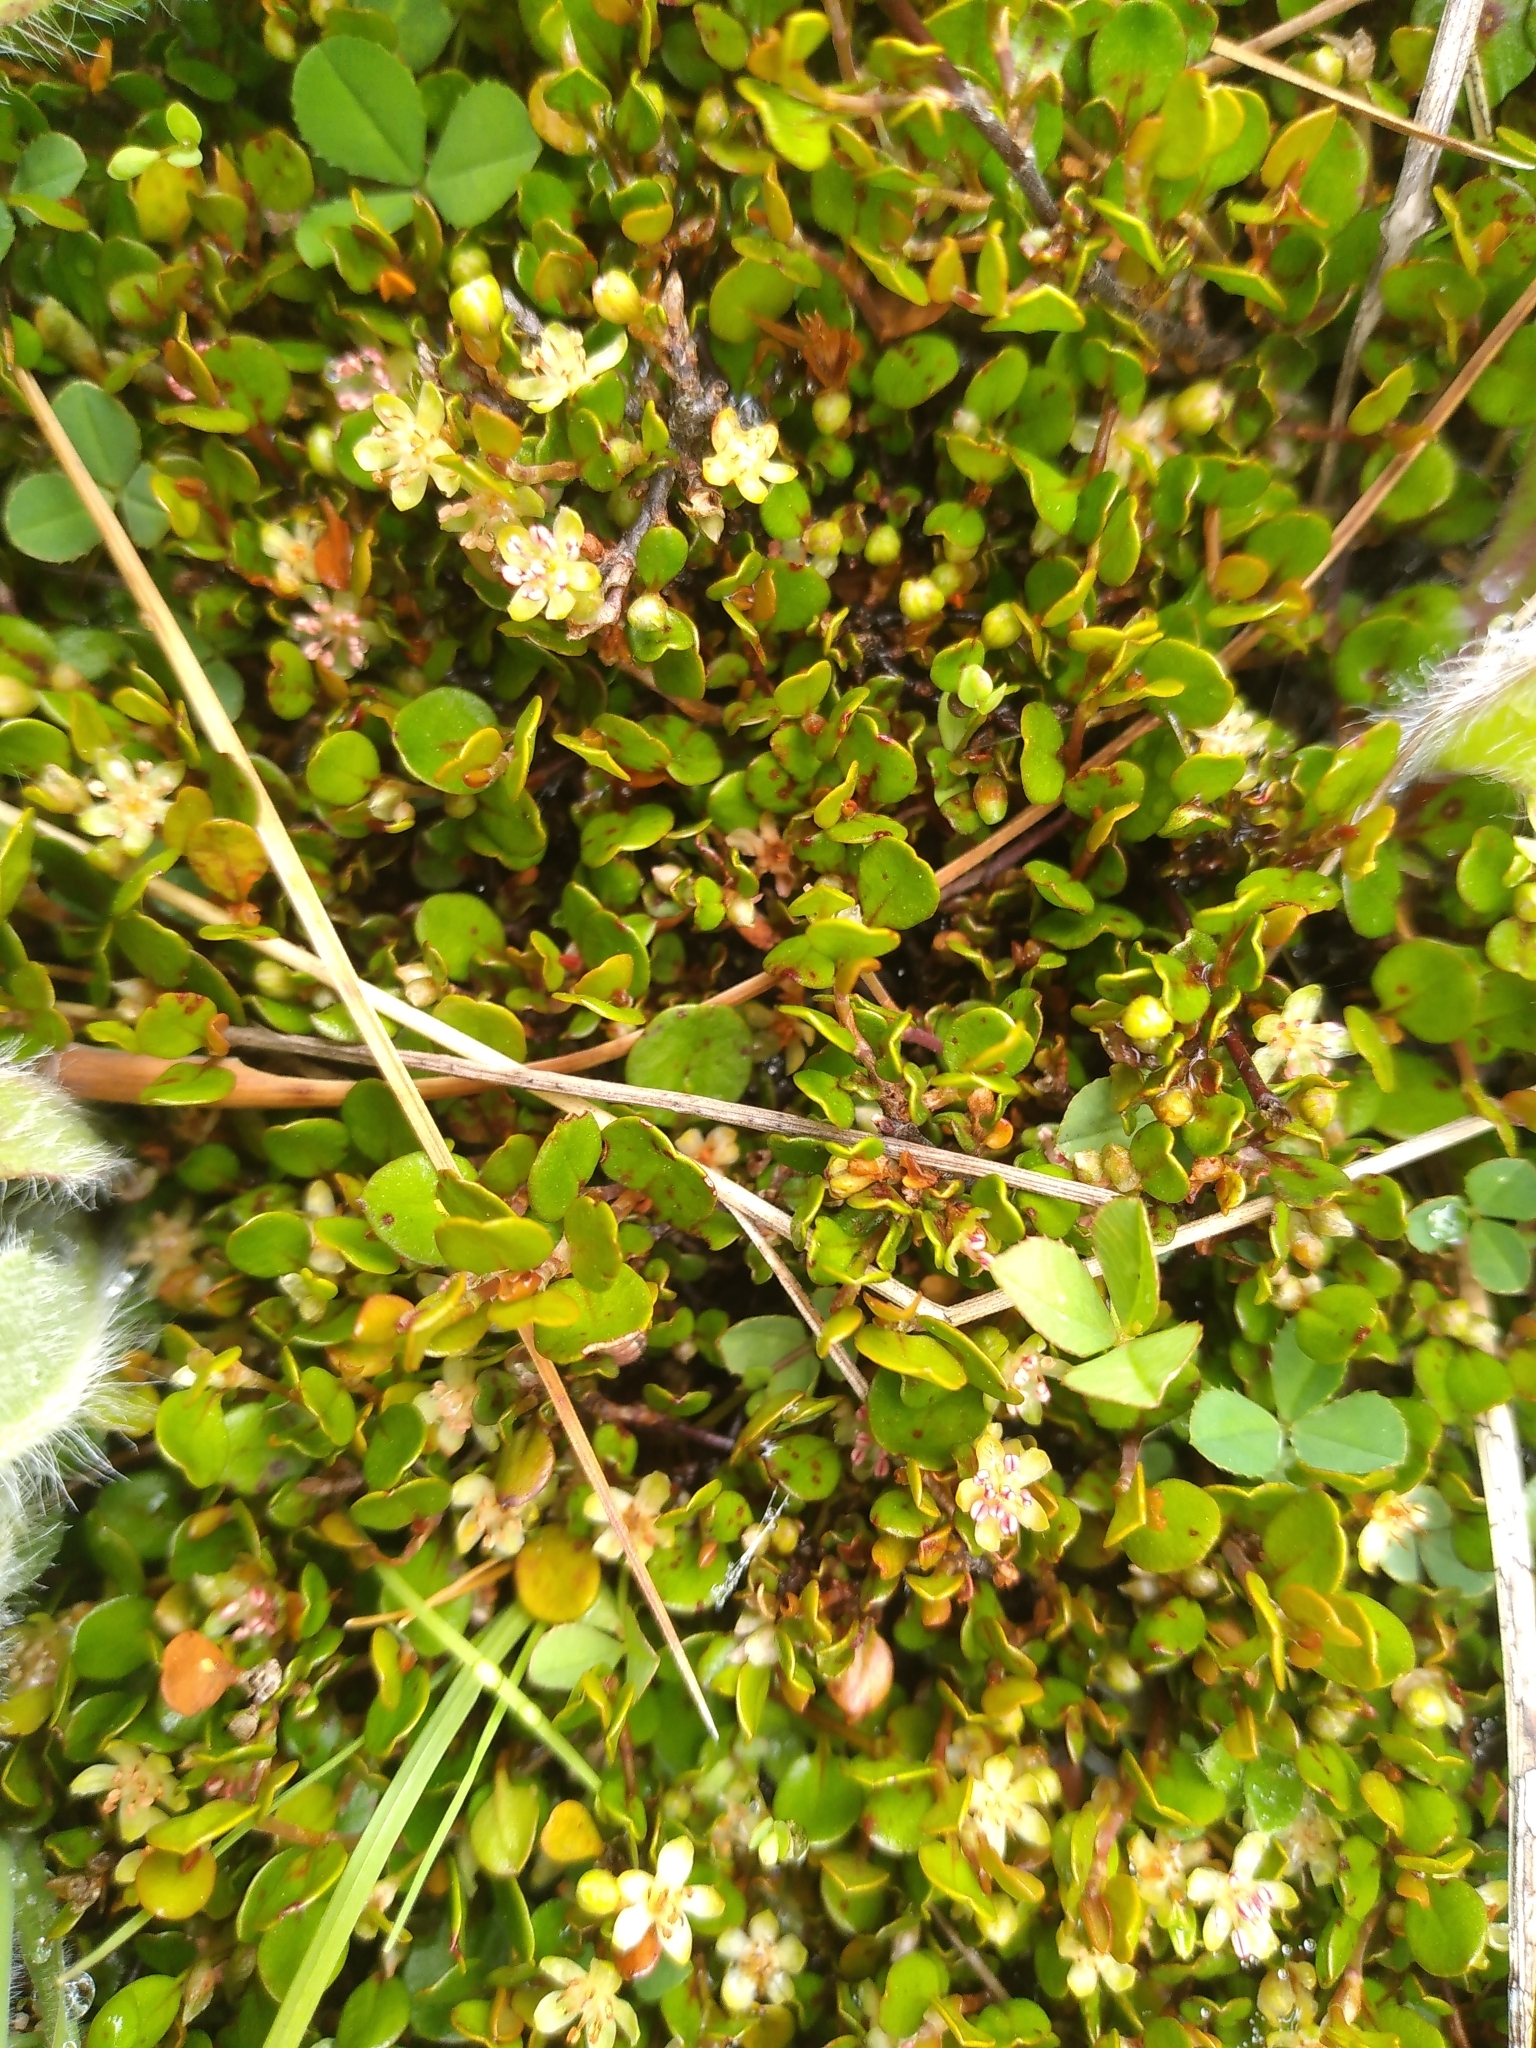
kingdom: Plantae
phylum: Tracheophyta
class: Magnoliopsida
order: Caryophyllales
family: Polygonaceae
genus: Muehlenbeckia
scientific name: Muehlenbeckia axillaris
